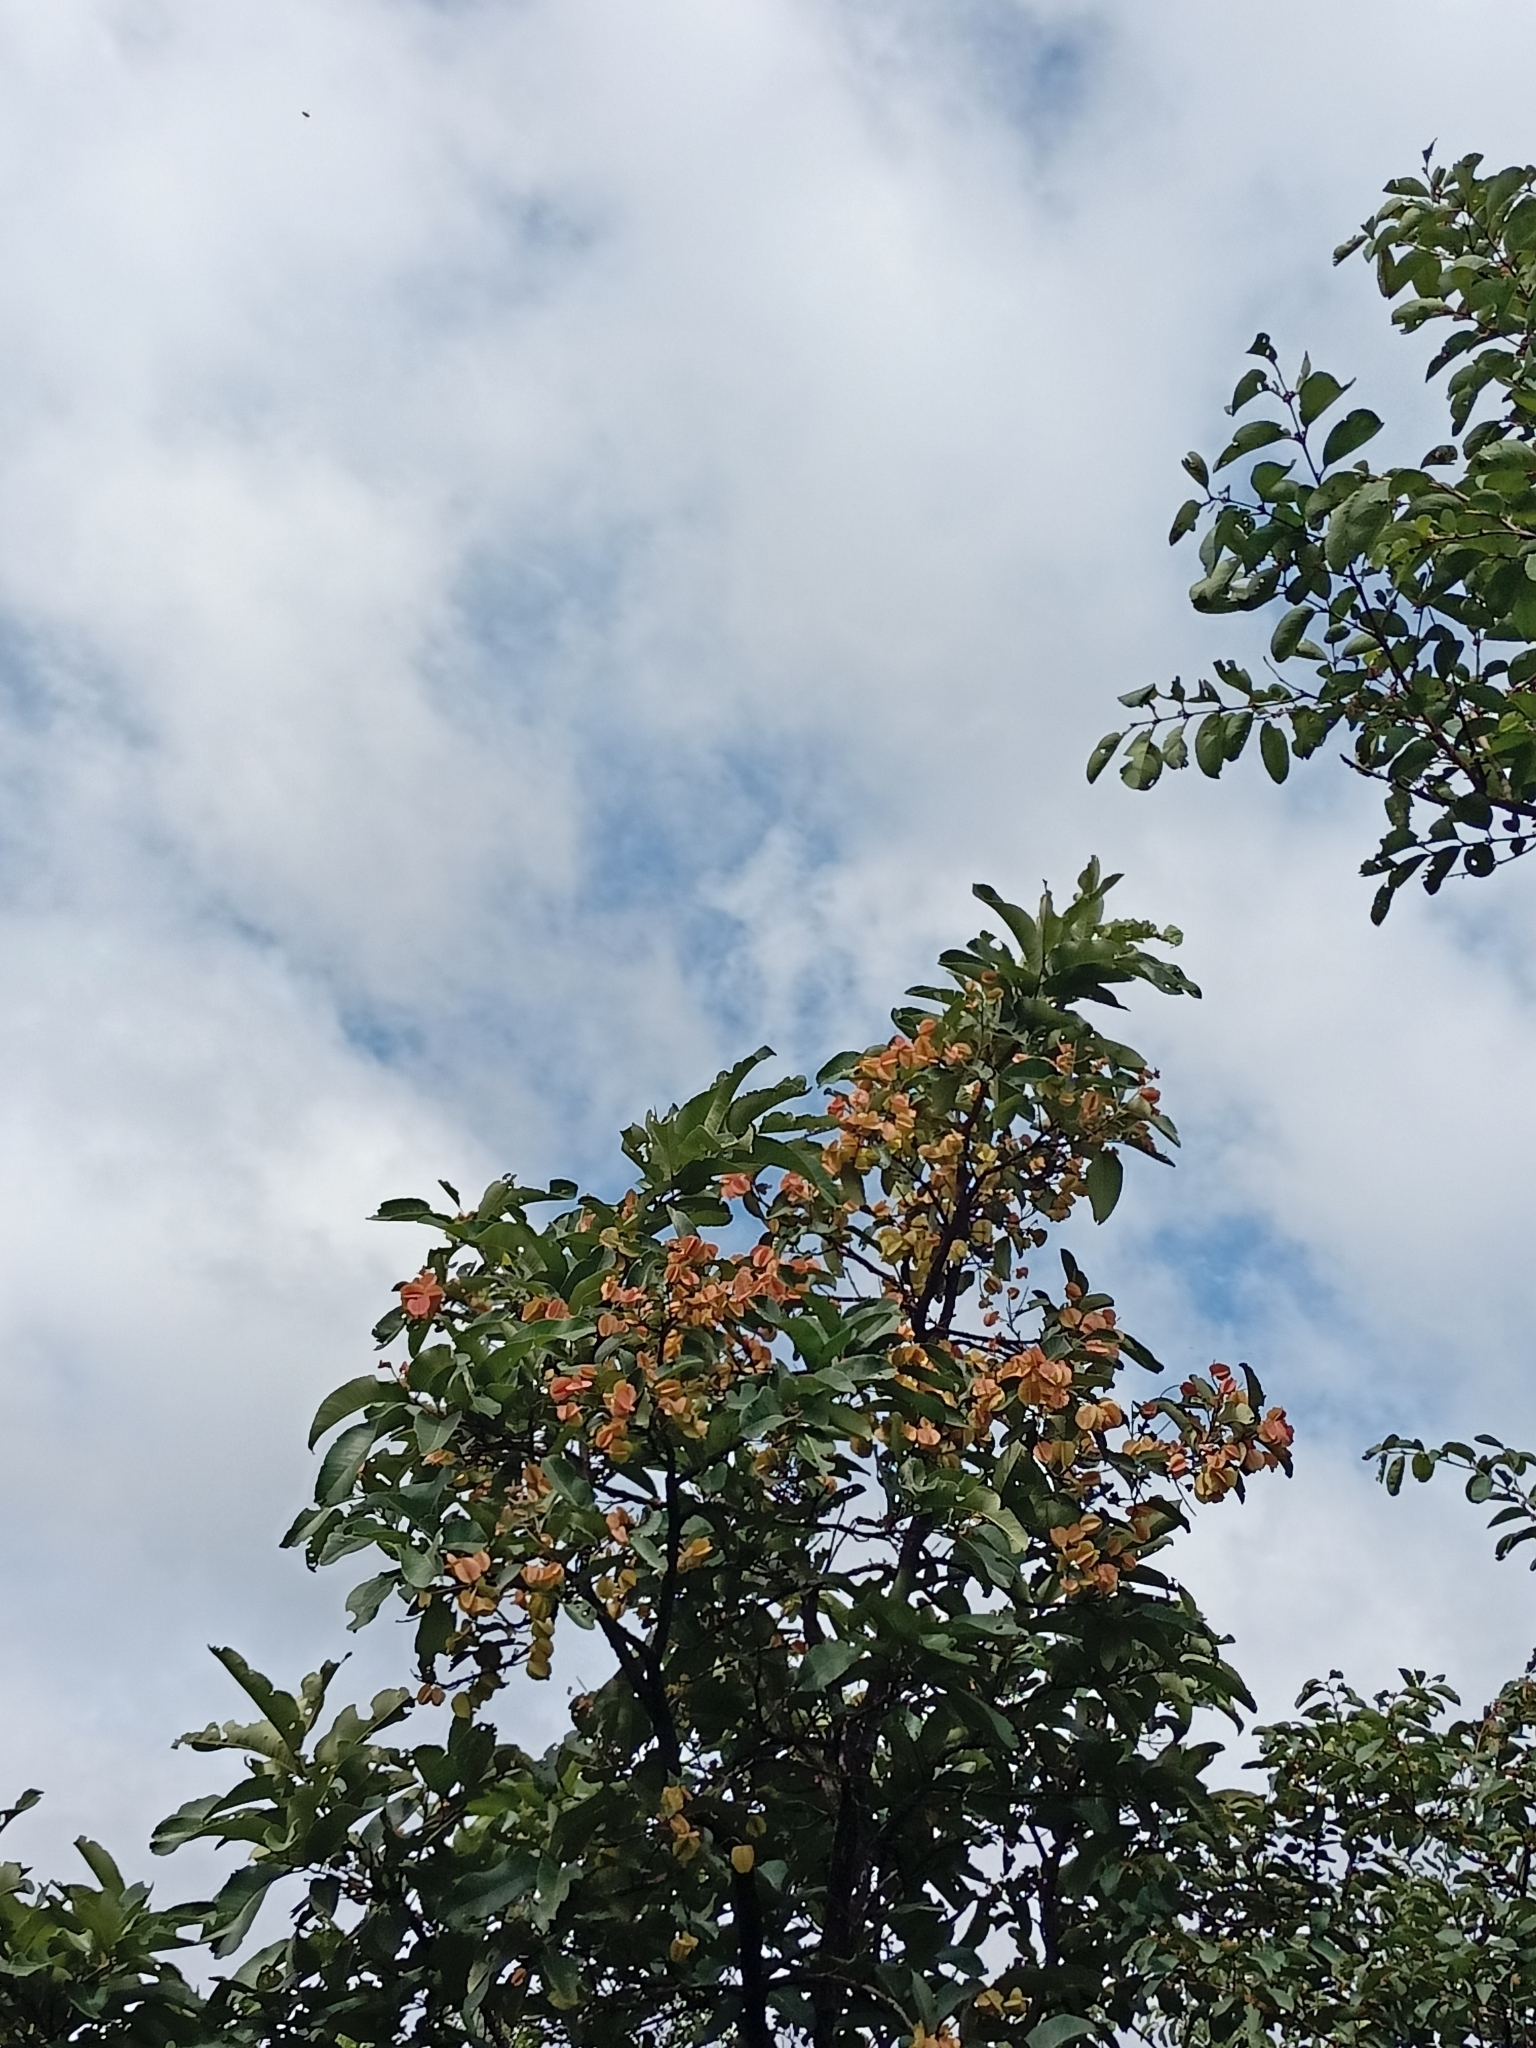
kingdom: Plantae
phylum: Tracheophyta
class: Magnoliopsida
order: Myrtales
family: Combretaceae
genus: Terminalia
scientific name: Terminalia elliptica
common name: Indian-laurel
